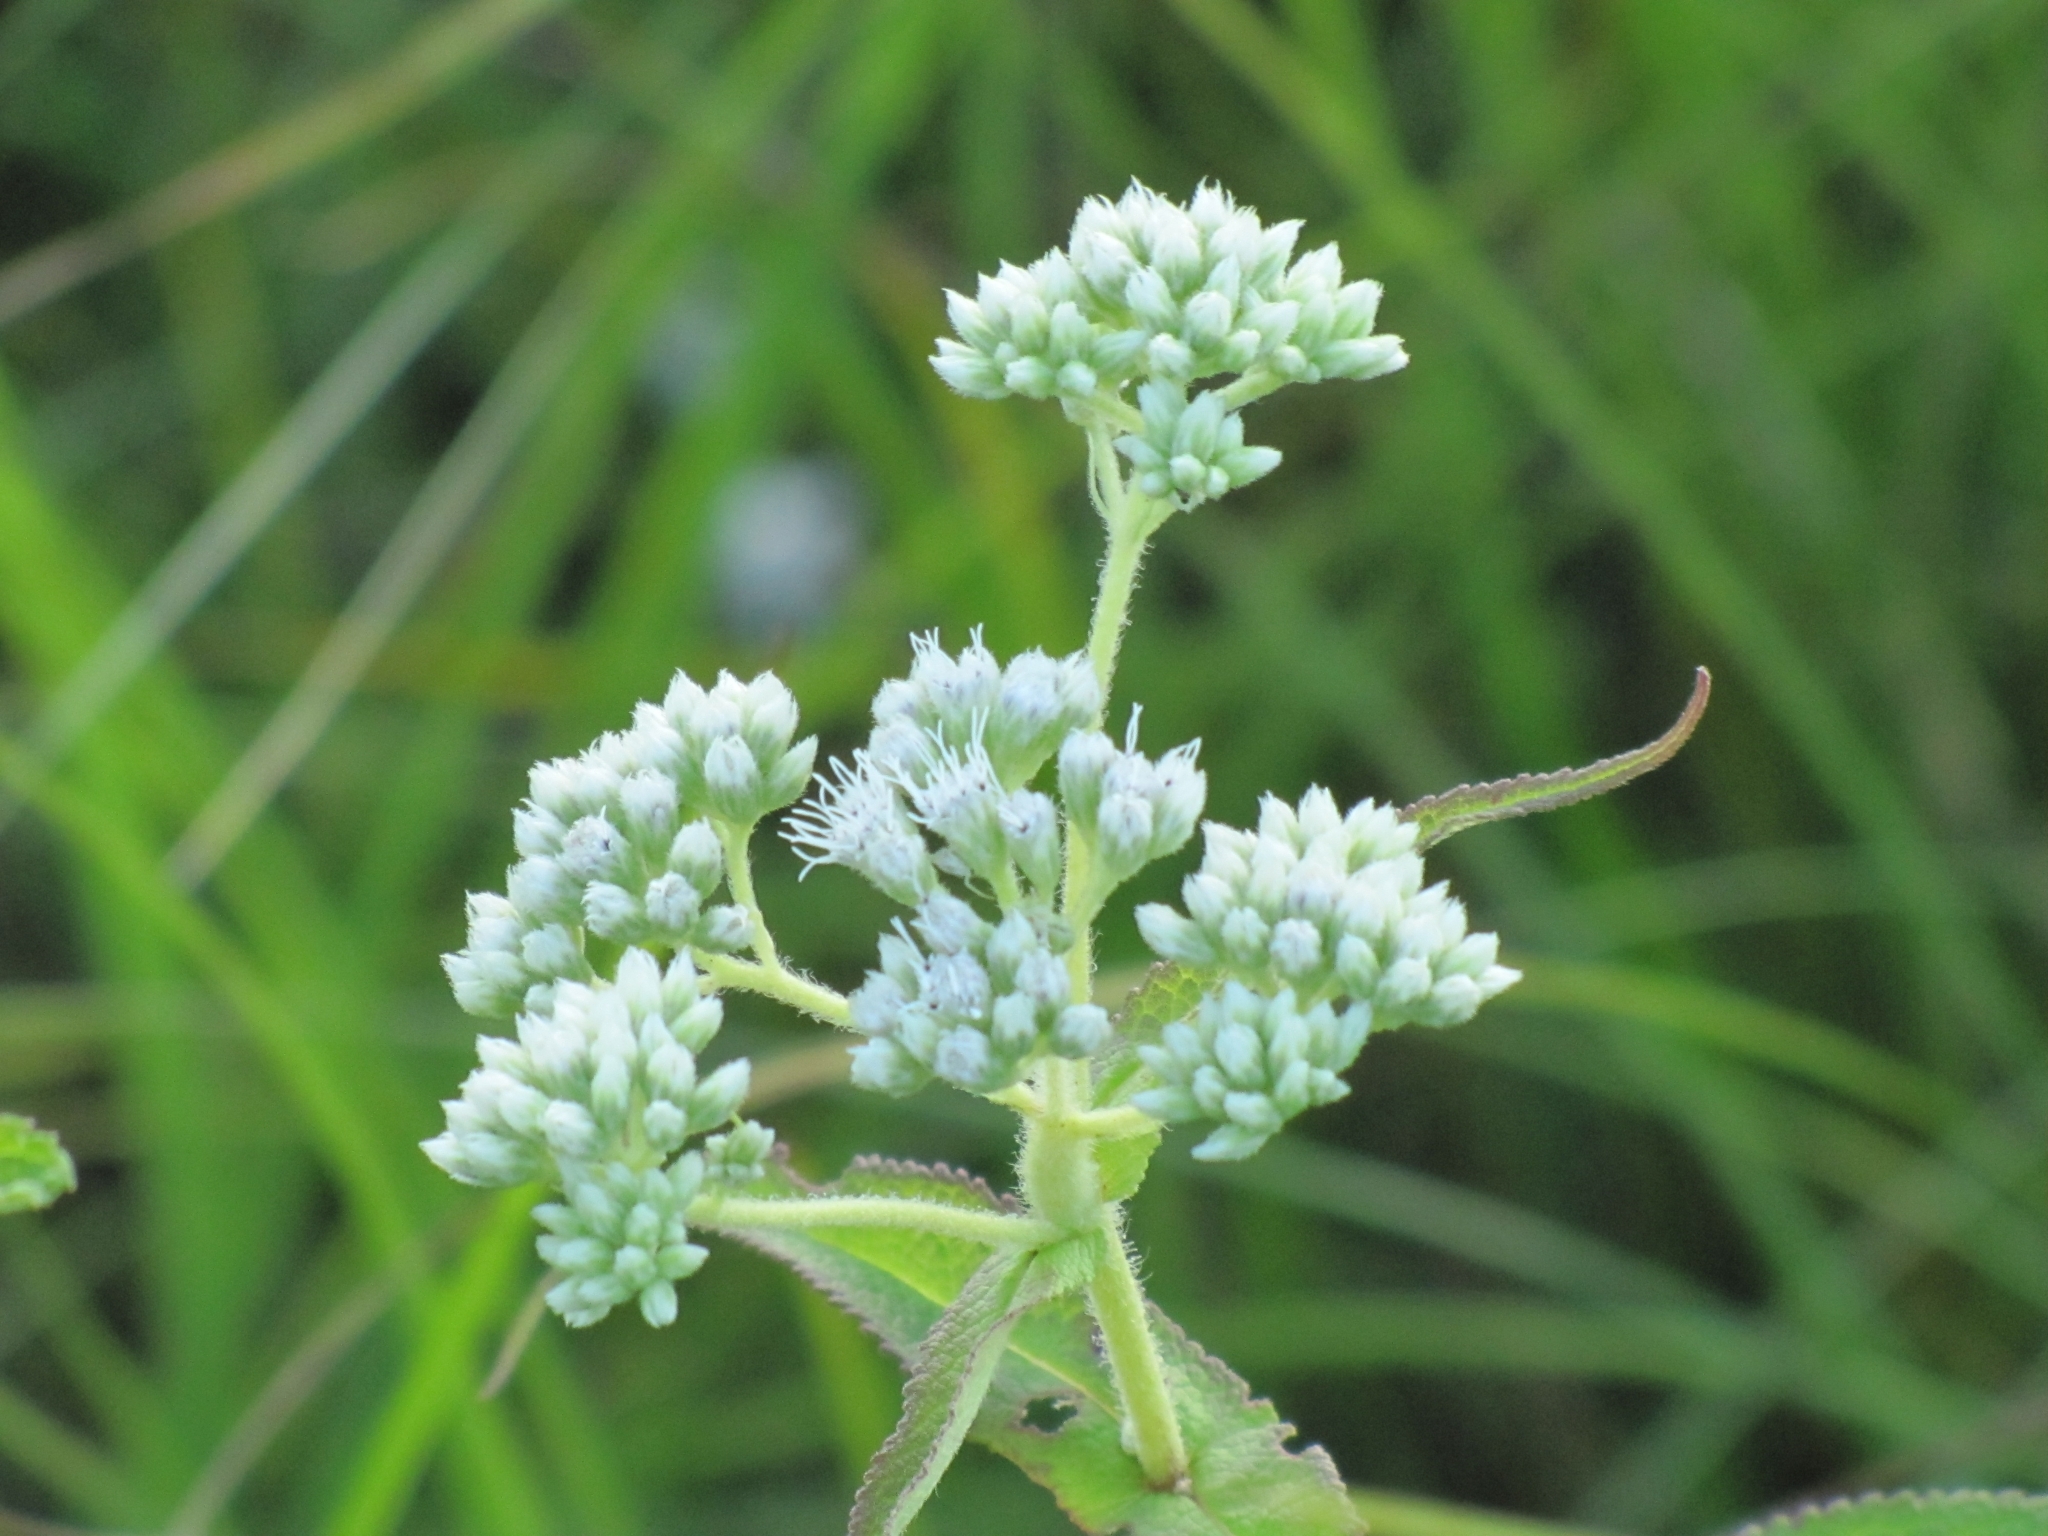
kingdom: Plantae
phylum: Tracheophyta
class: Magnoliopsida
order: Asterales
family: Asteraceae
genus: Eupatorium
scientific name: Eupatorium perfoliatum
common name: Boneset
